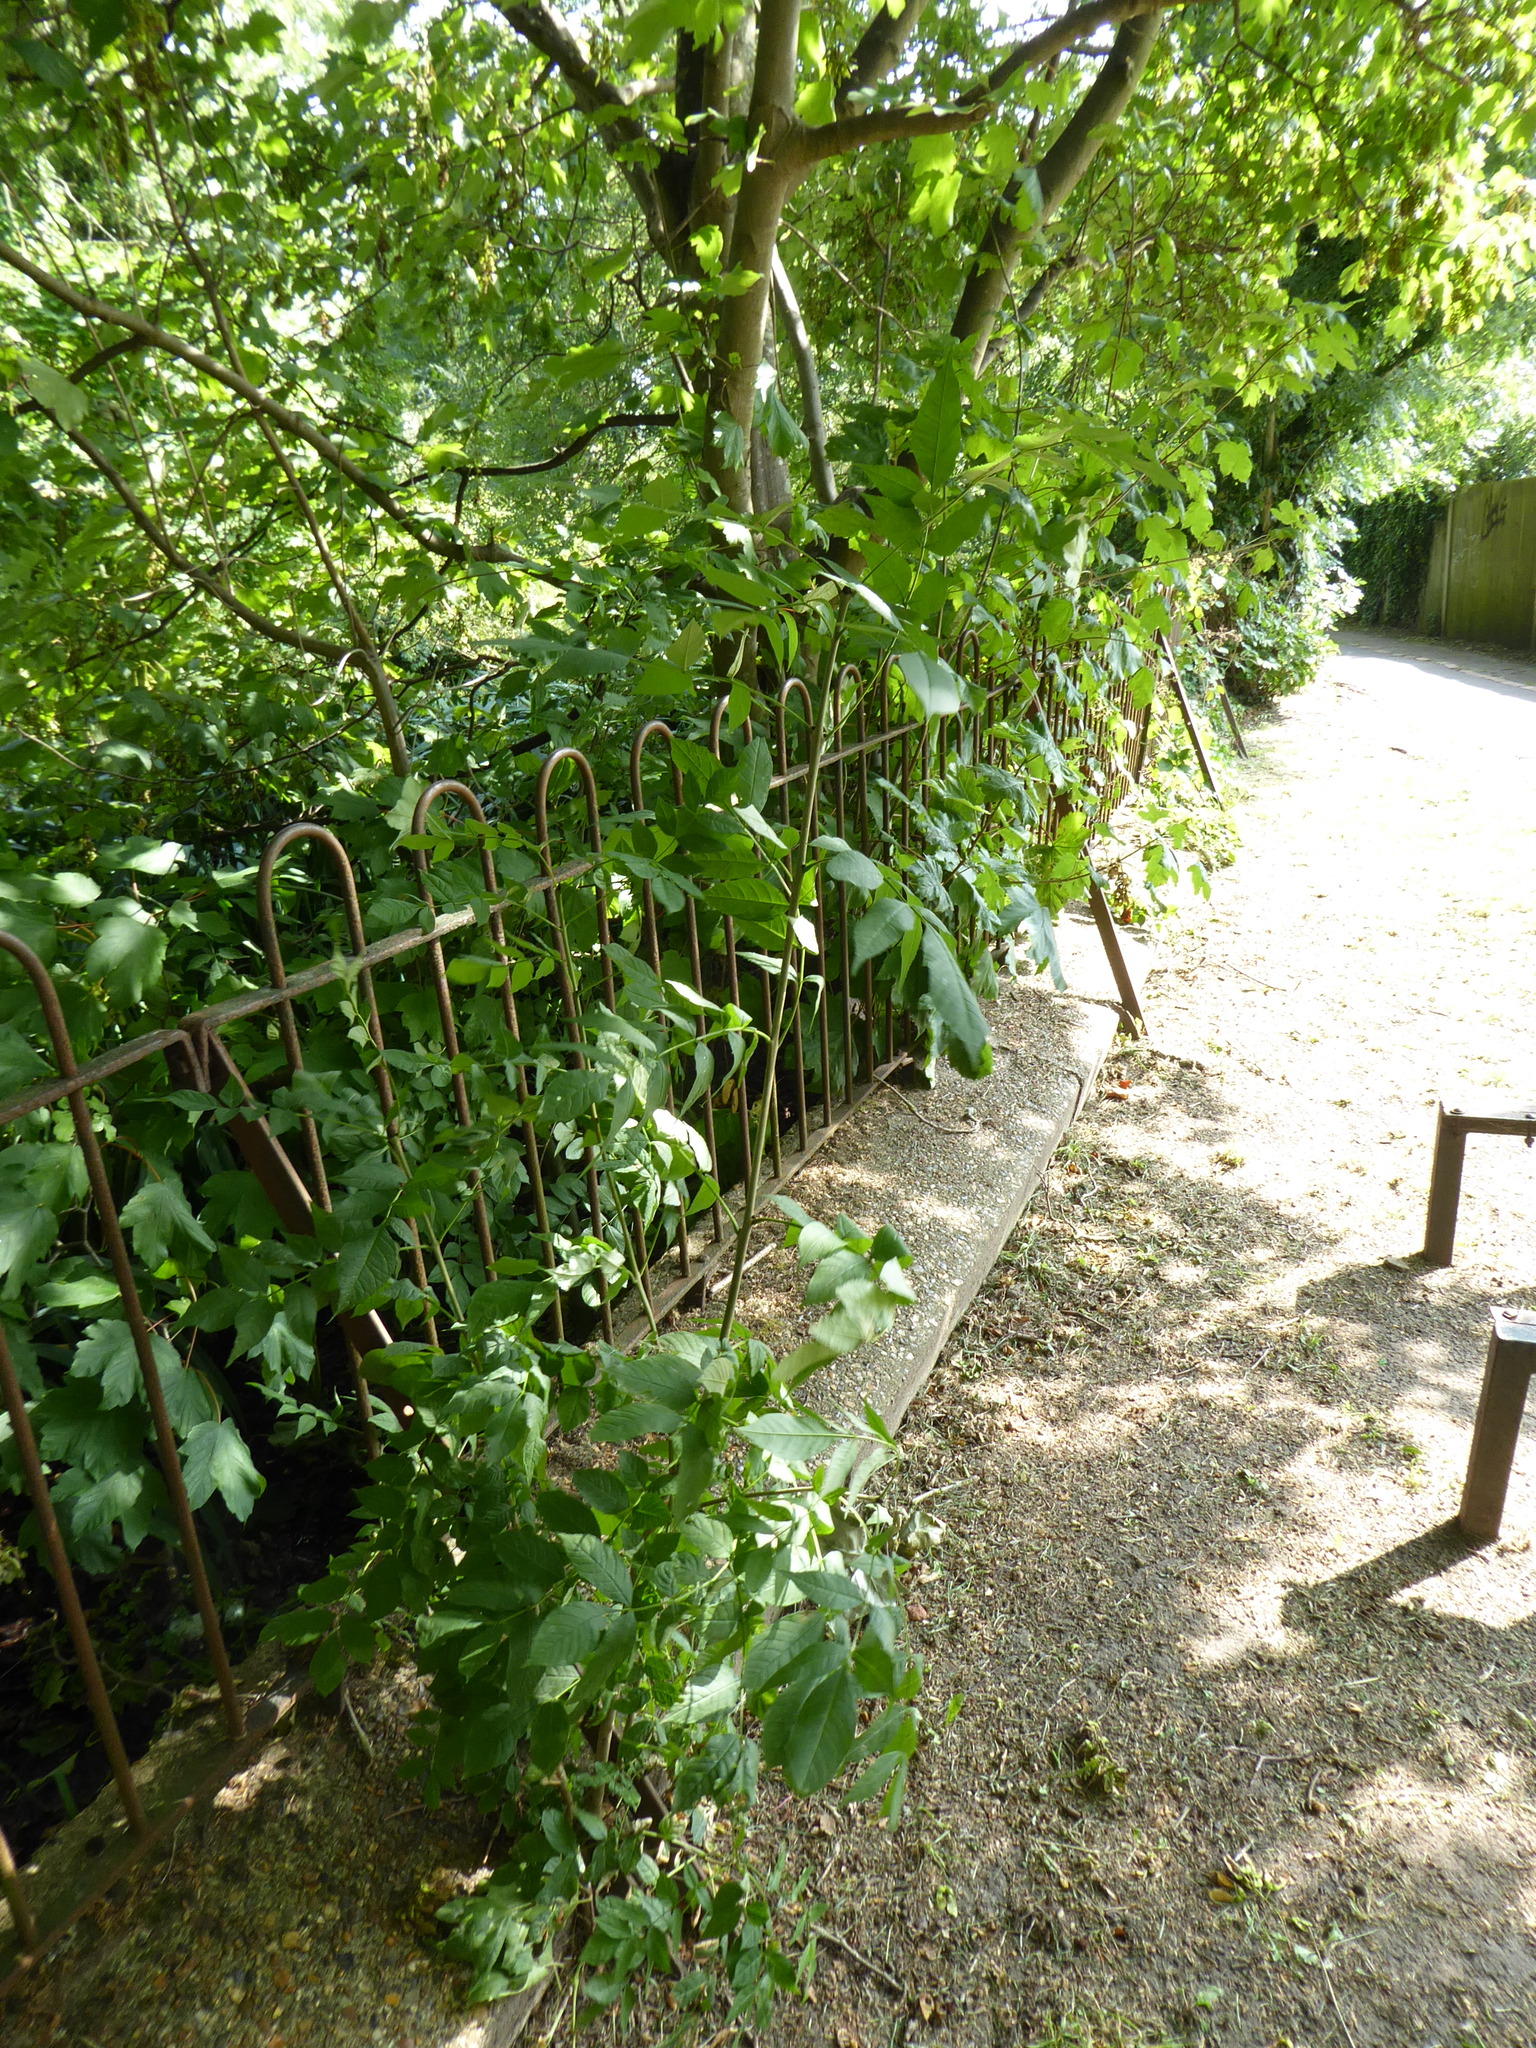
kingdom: Plantae
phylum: Tracheophyta
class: Magnoliopsida
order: Lamiales
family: Oleaceae
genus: Fraxinus
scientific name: Fraxinus excelsior
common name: European ash
